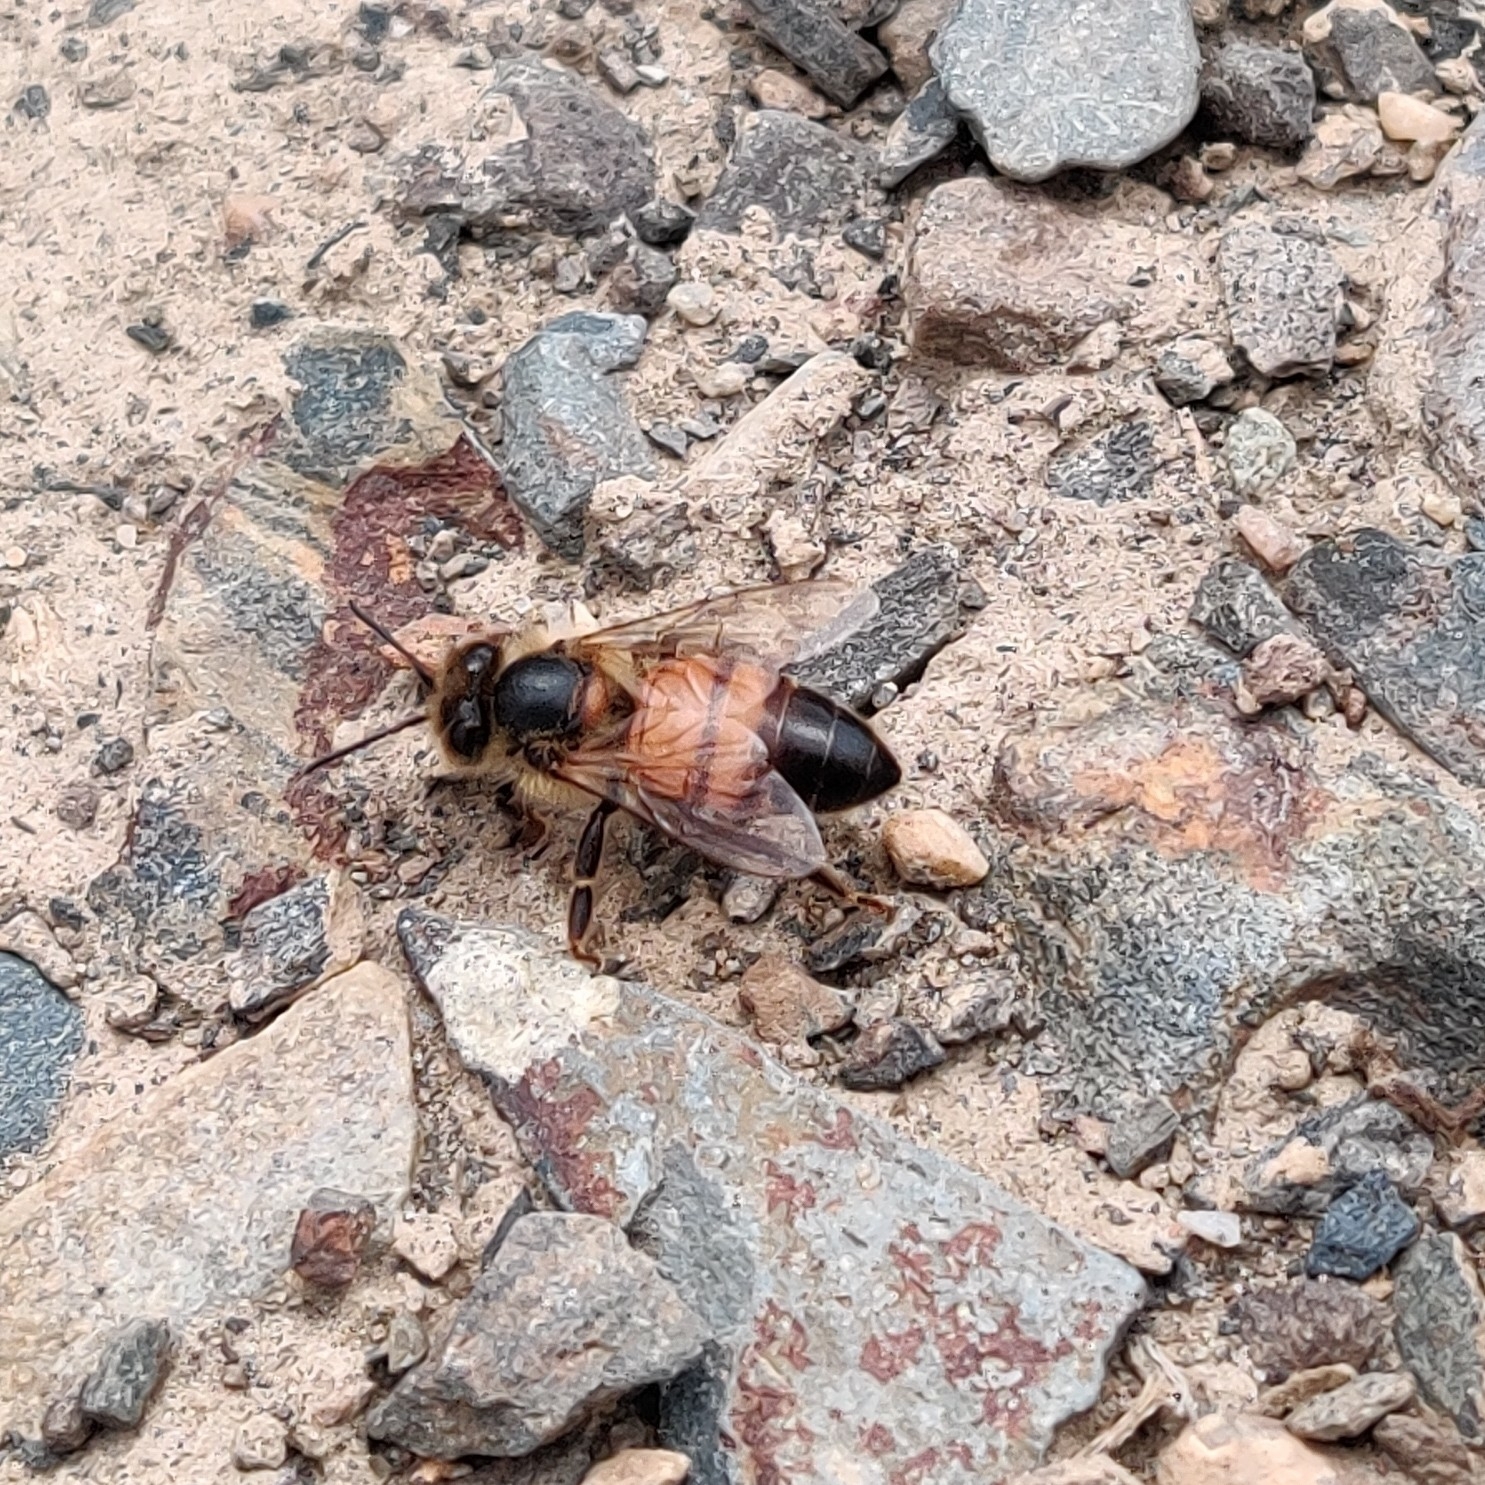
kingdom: Animalia
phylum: Arthropoda
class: Insecta
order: Hymenoptera
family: Apidae
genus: Apis
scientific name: Apis
